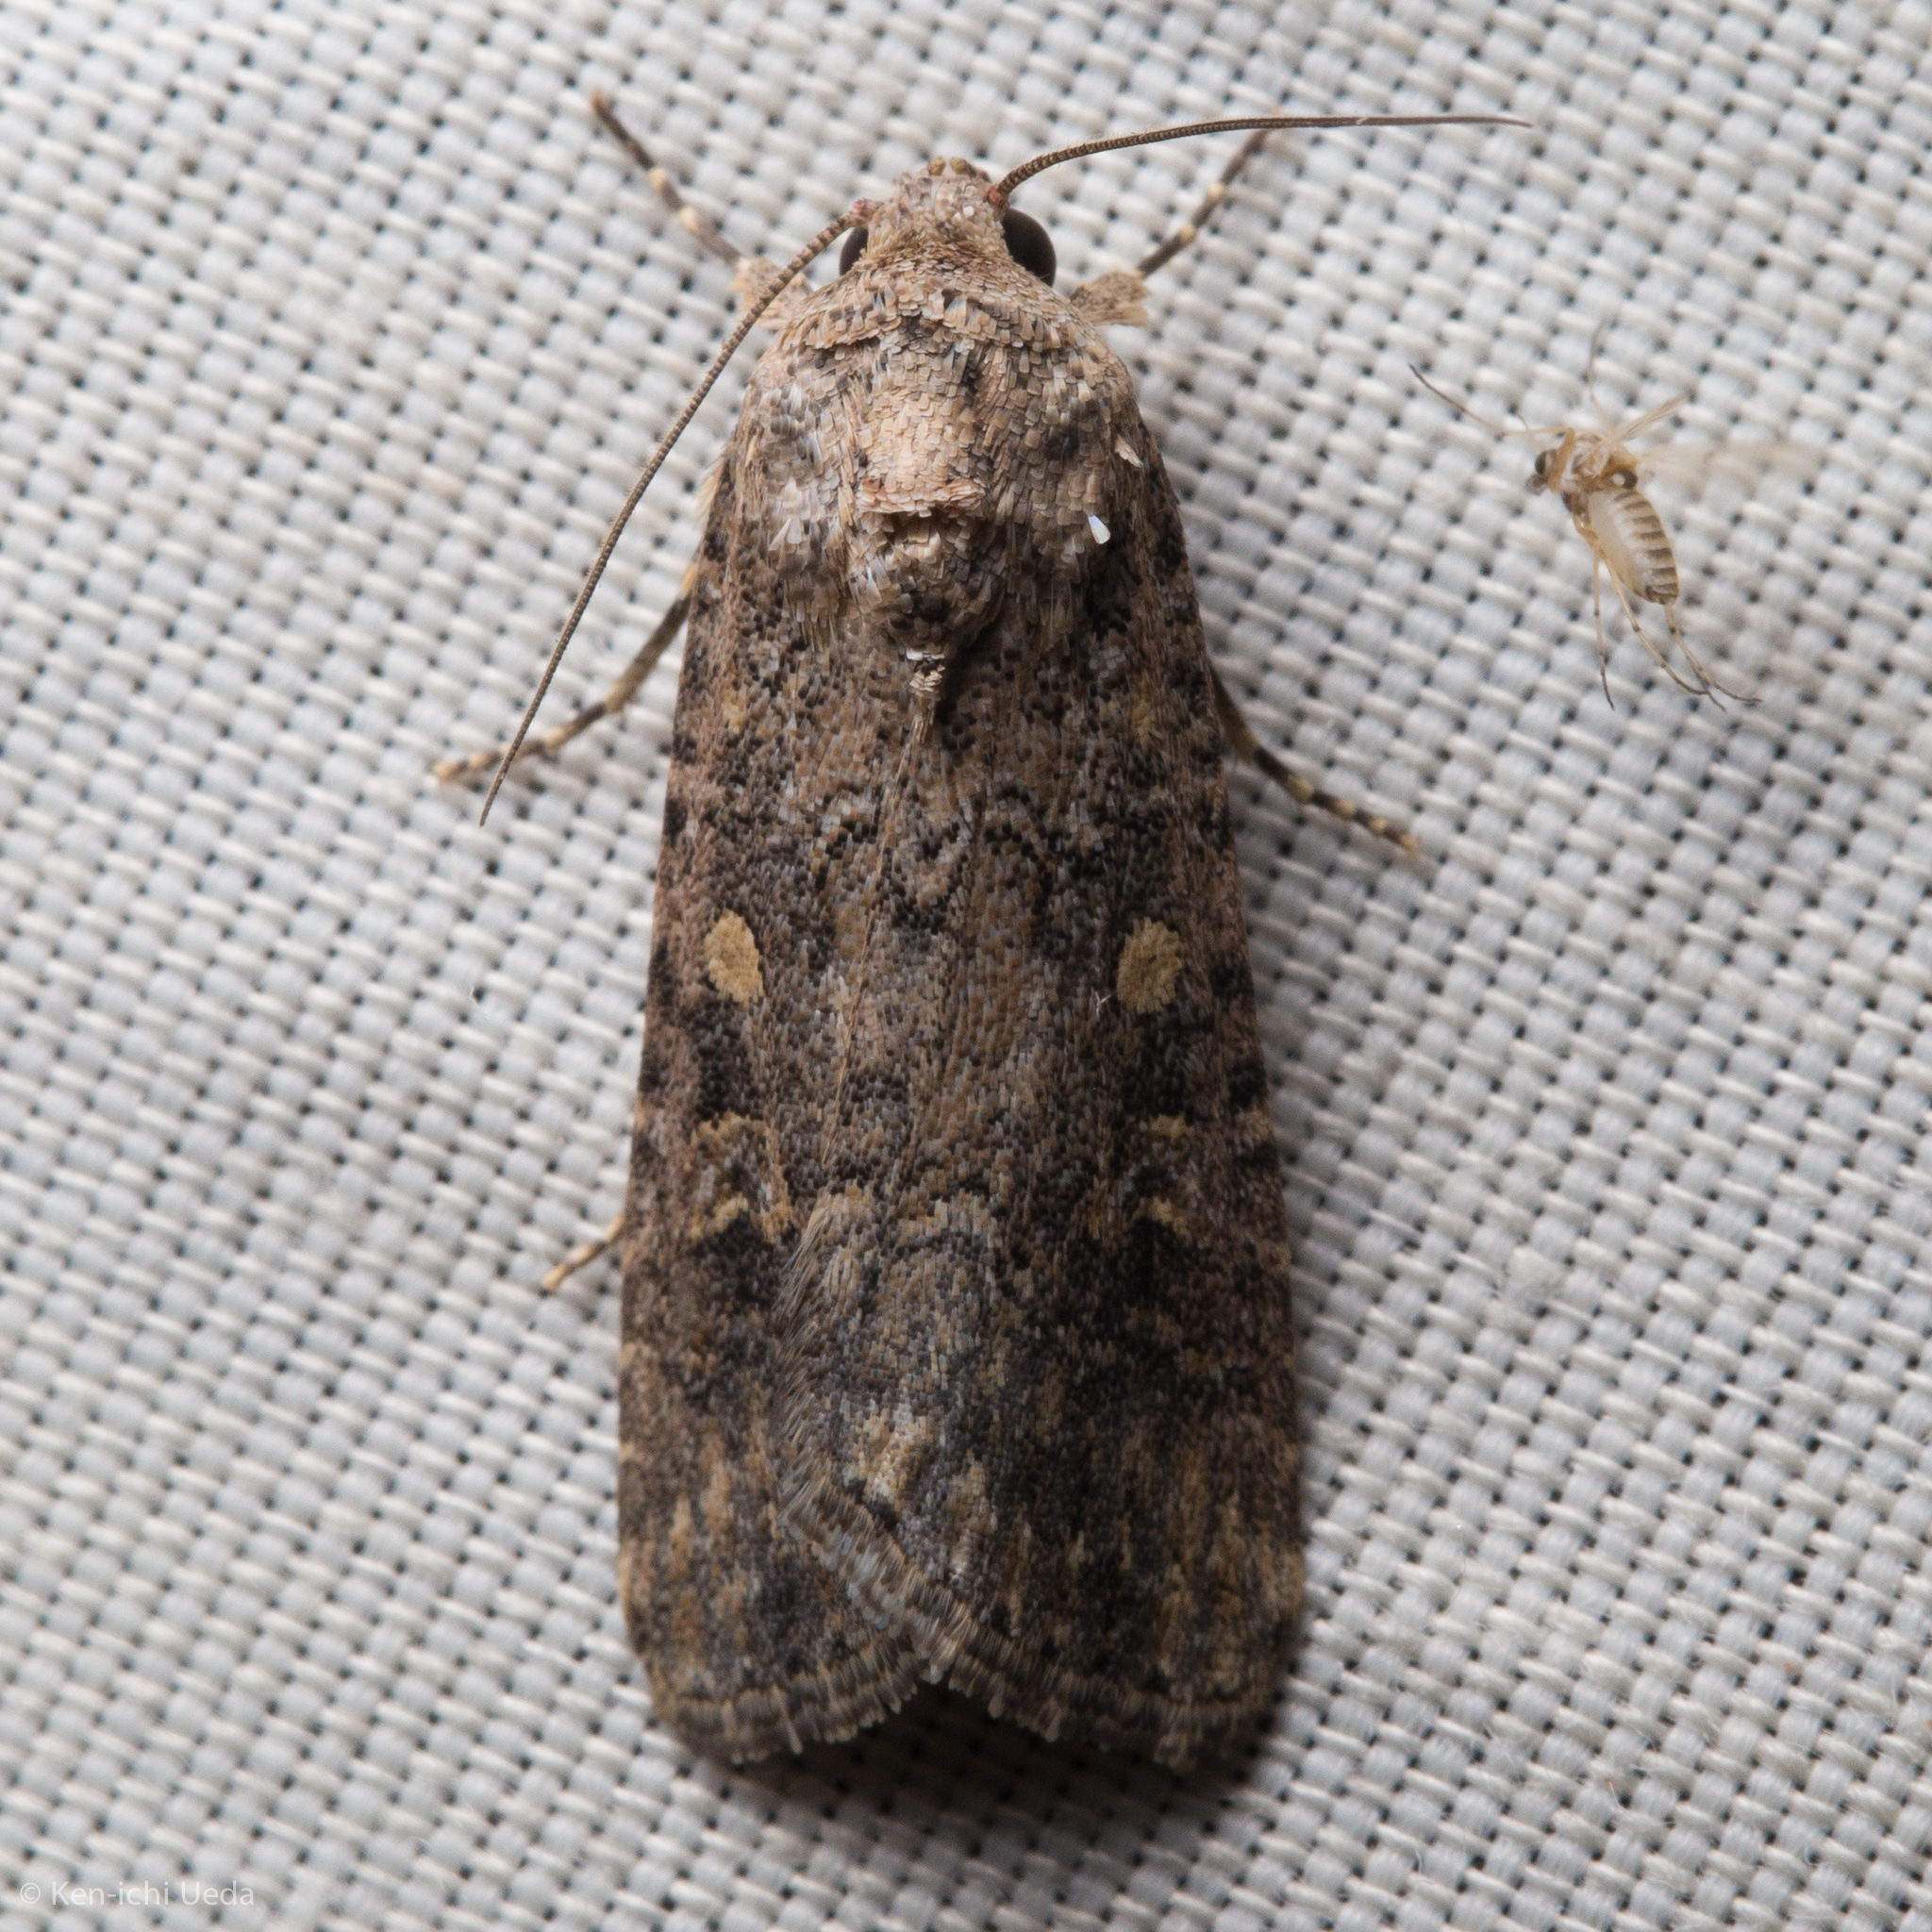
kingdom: Animalia
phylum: Arthropoda
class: Insecta
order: Lepidoptera
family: Noctuidae
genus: Spodoptera
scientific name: Spodoptera exigua
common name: Beet armyworm
